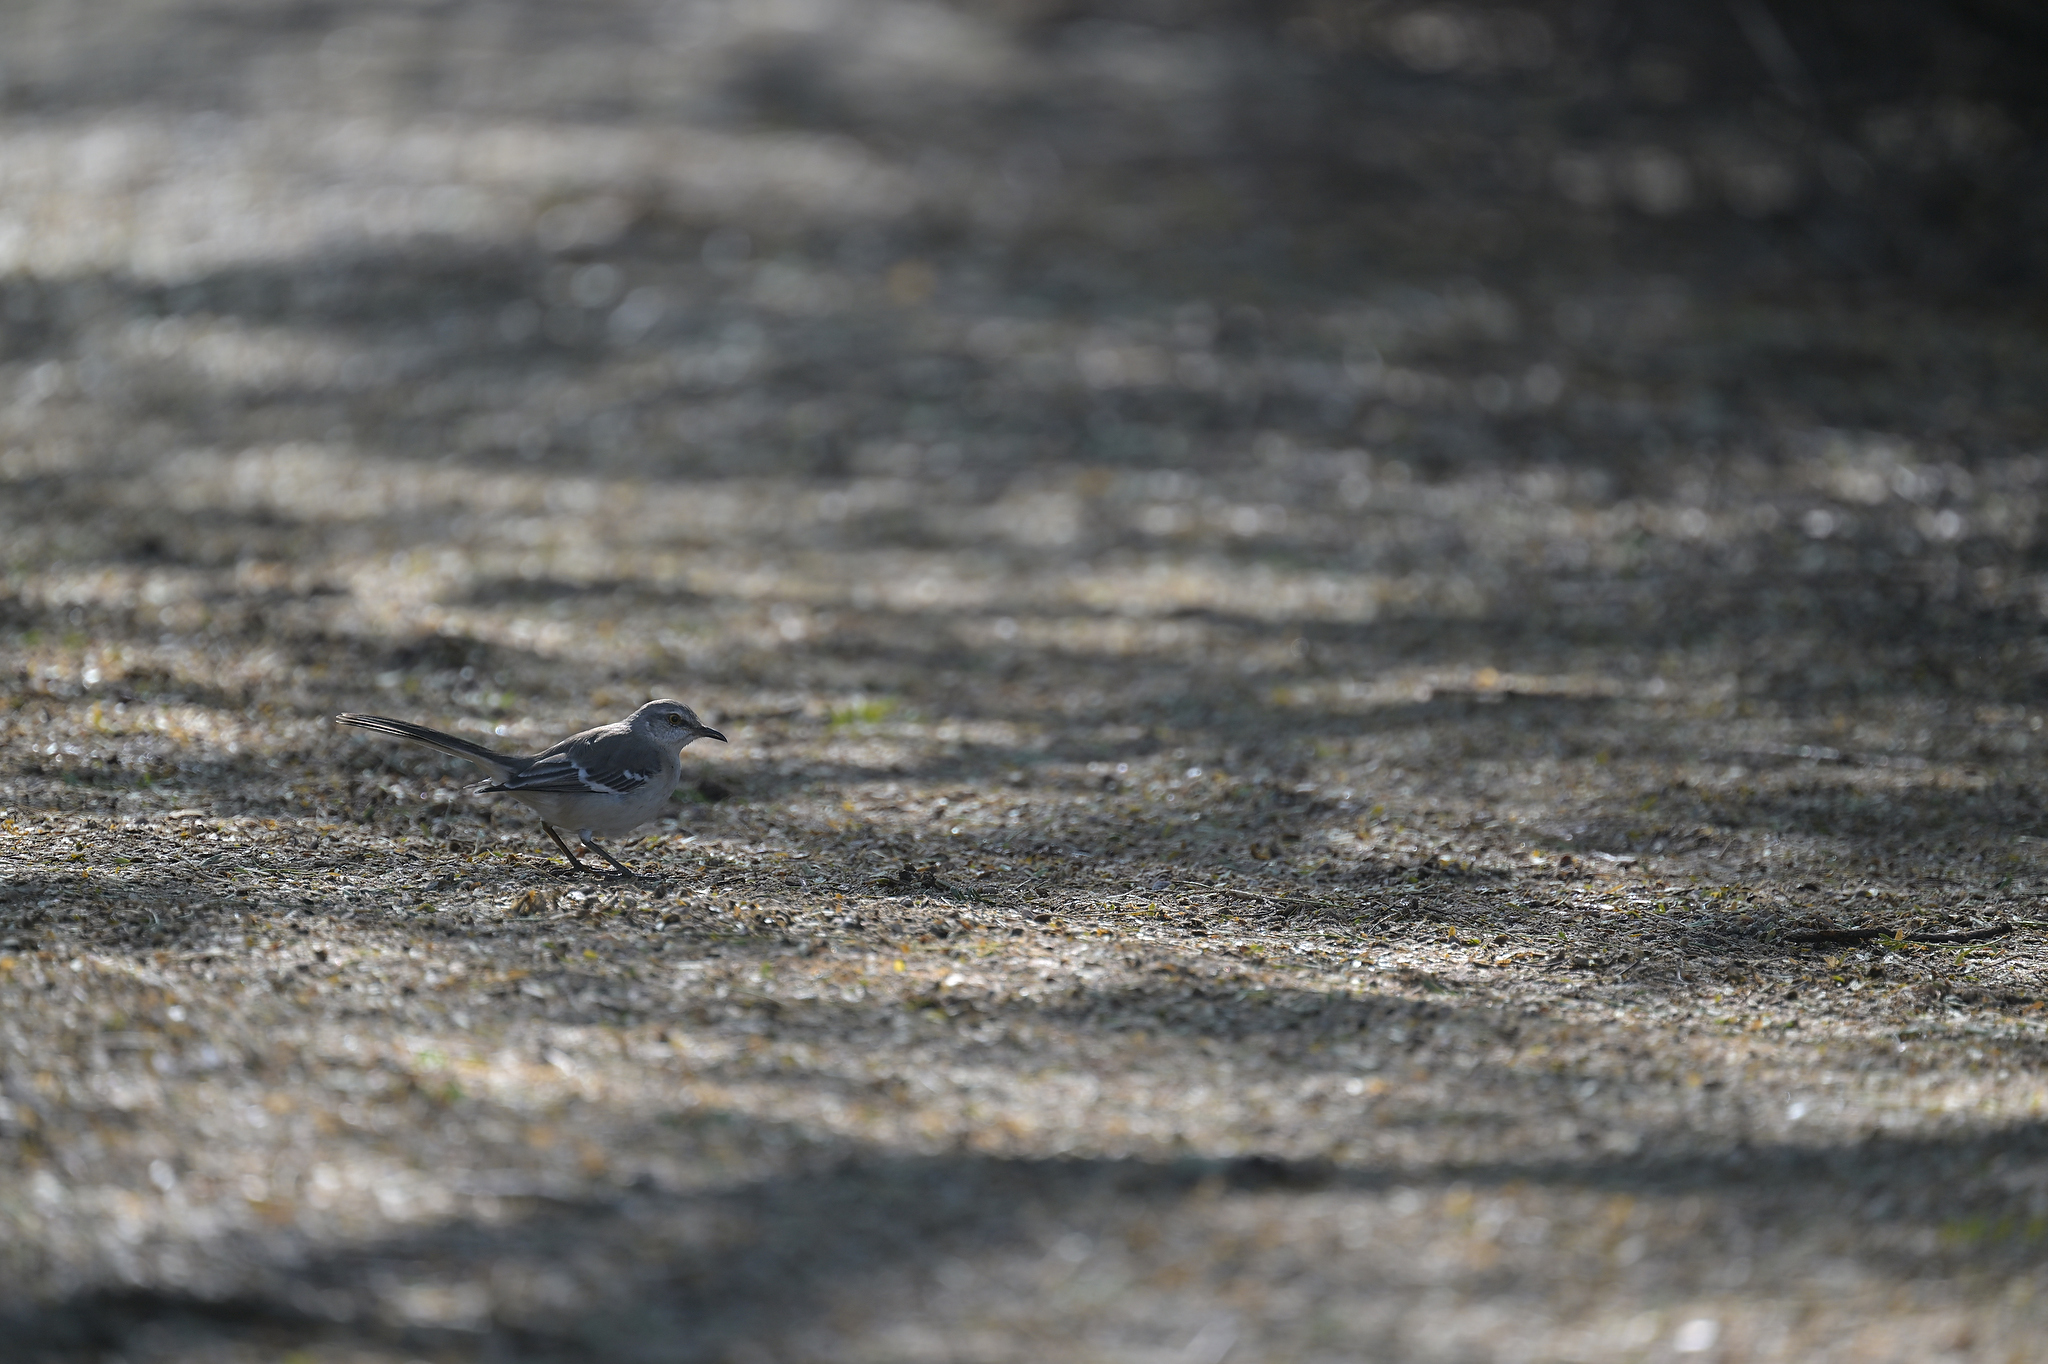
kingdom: Animalia
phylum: Chordata
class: Aves
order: Passeriformes
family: Mimidae
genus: Mimus
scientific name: Mimus polyglottos
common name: Northern mockingbird
